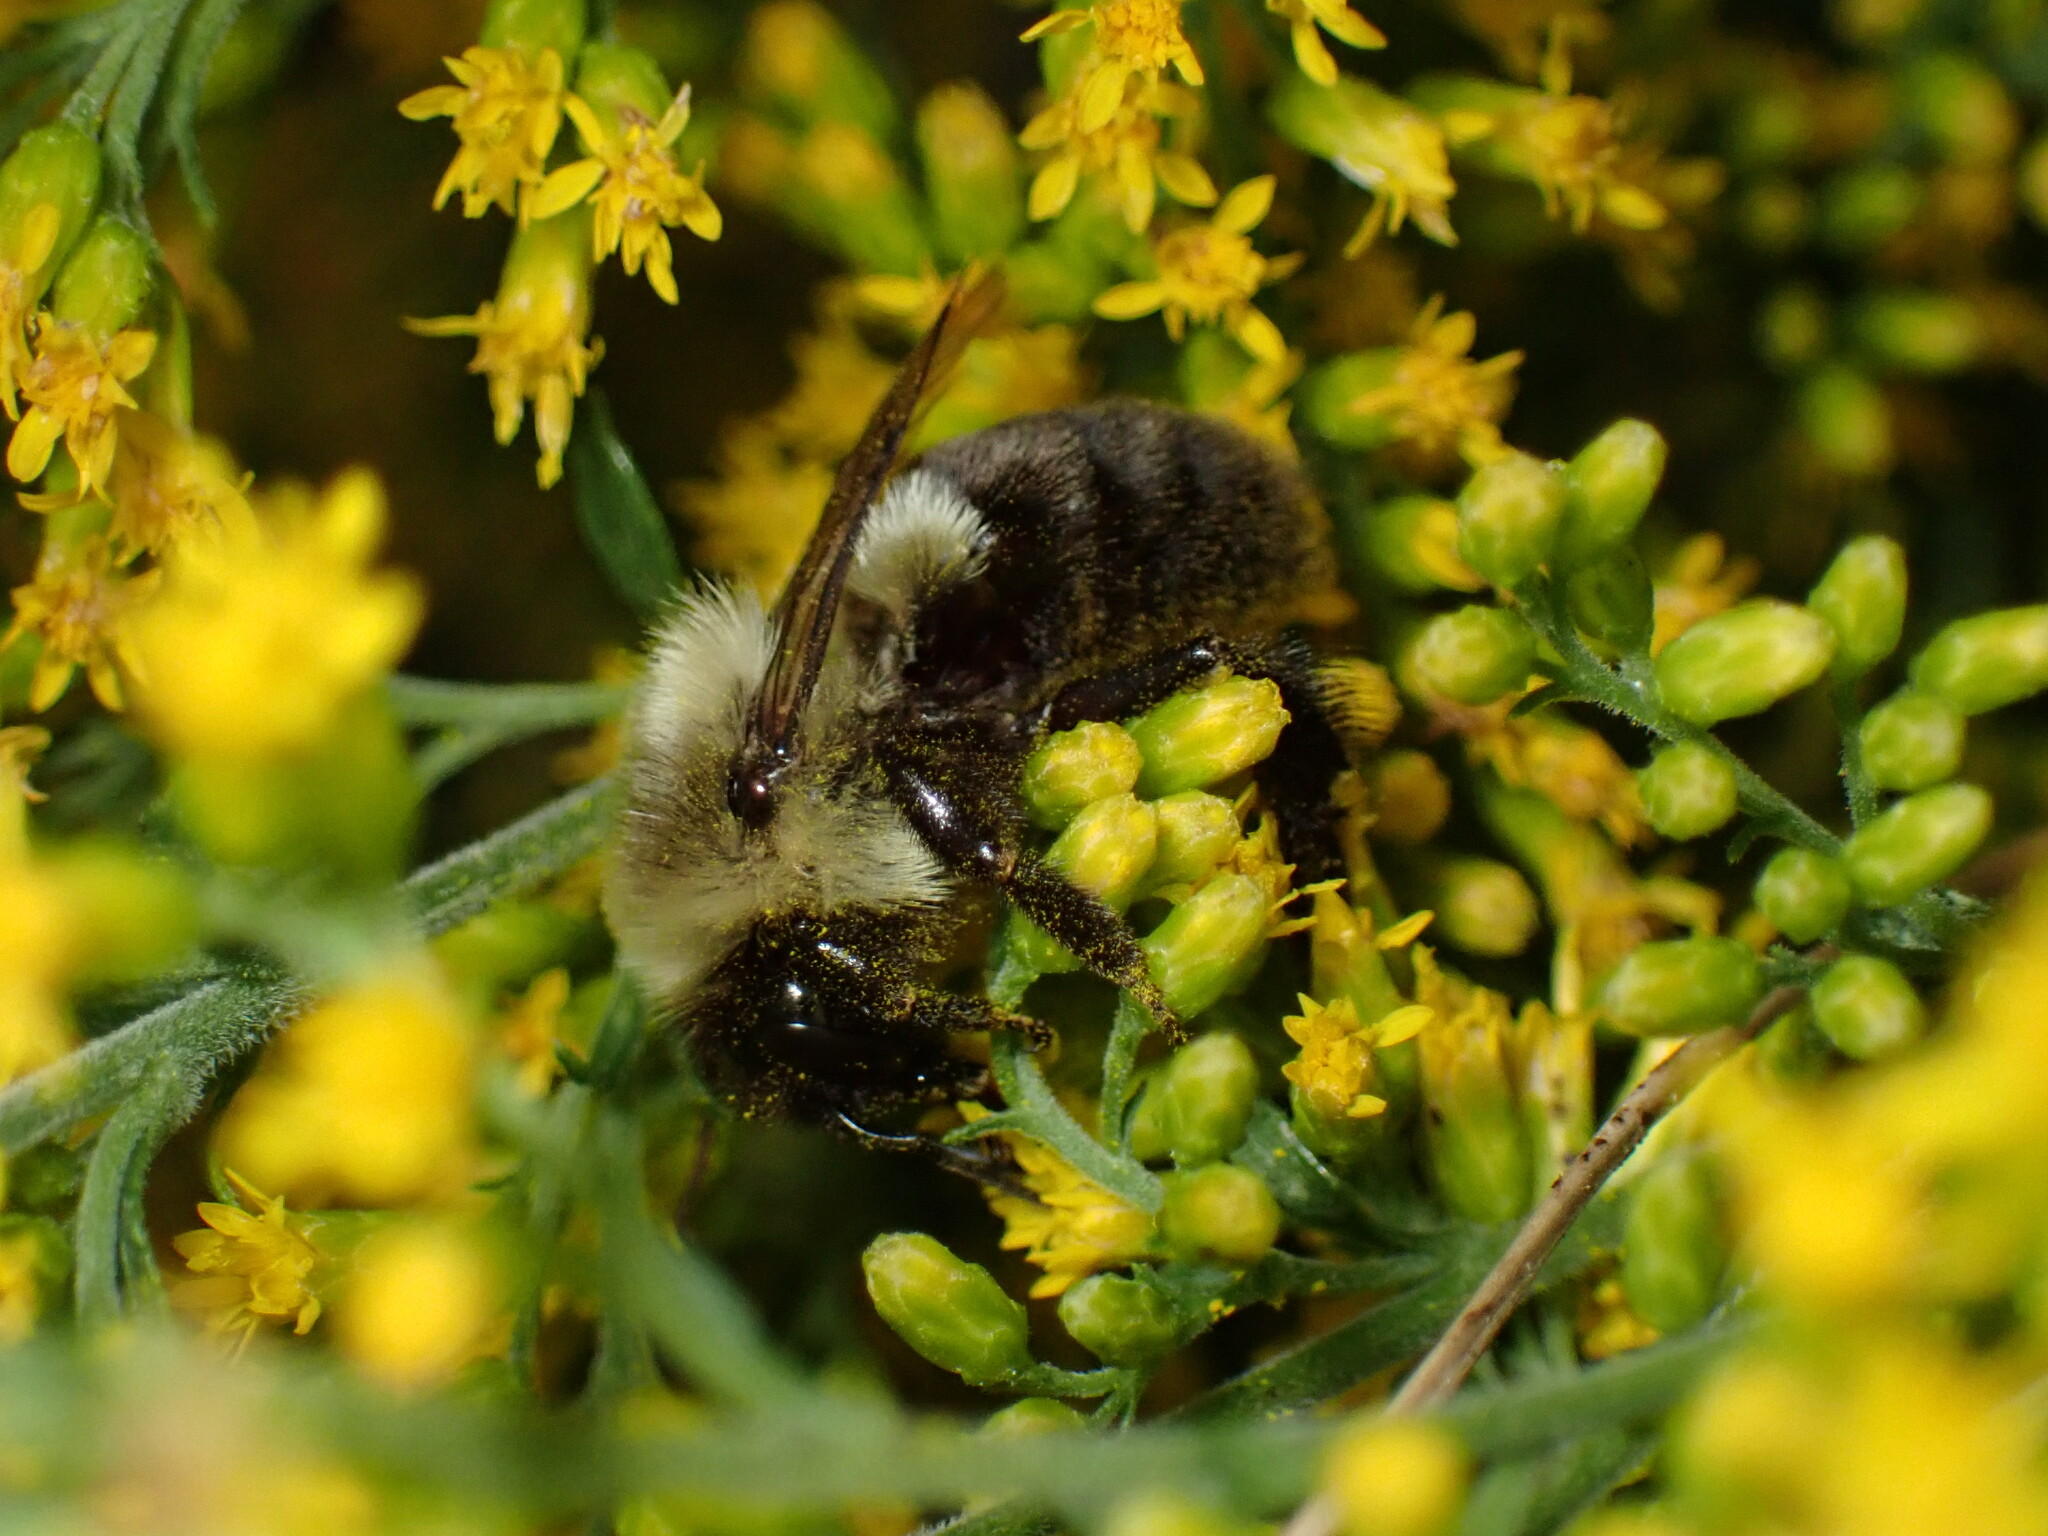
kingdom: Animalia
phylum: Arthropoda
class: Insecta
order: Hymenoptera
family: Apidae
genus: Bombus
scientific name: Bombus impatiens
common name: Common eastern bumble bee
